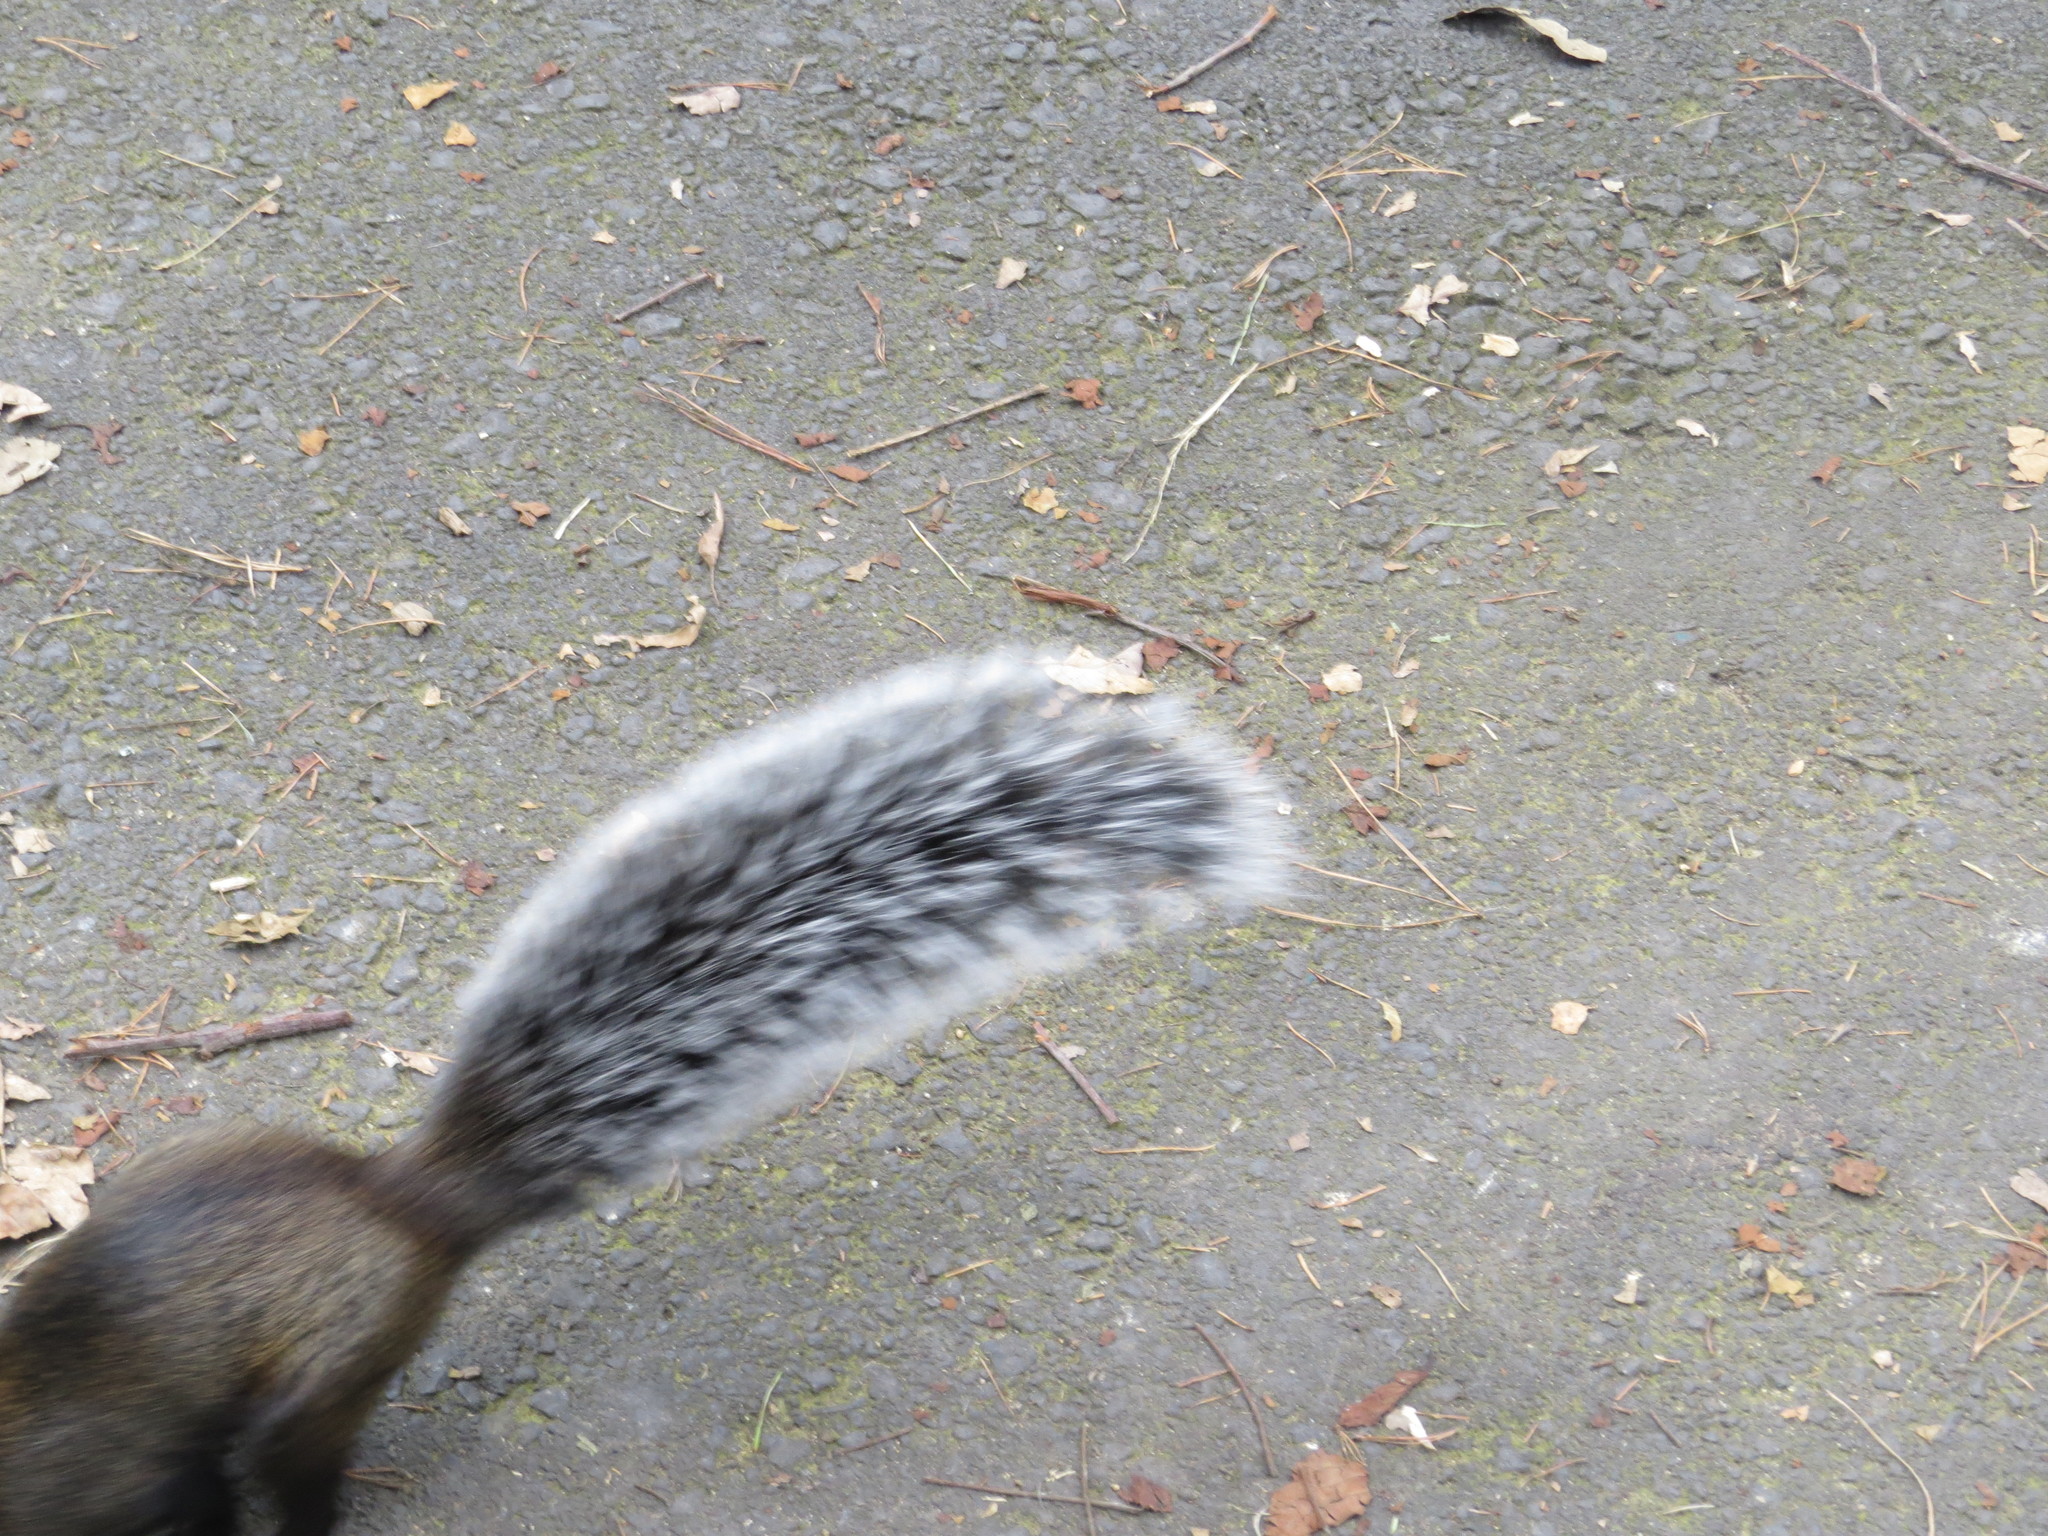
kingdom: Animalia
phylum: Chordata
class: Mammalia
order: Rodentia
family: Sciuridae
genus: Sciurus
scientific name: Sciurus aureogaster
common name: Red-bellied squirrel
